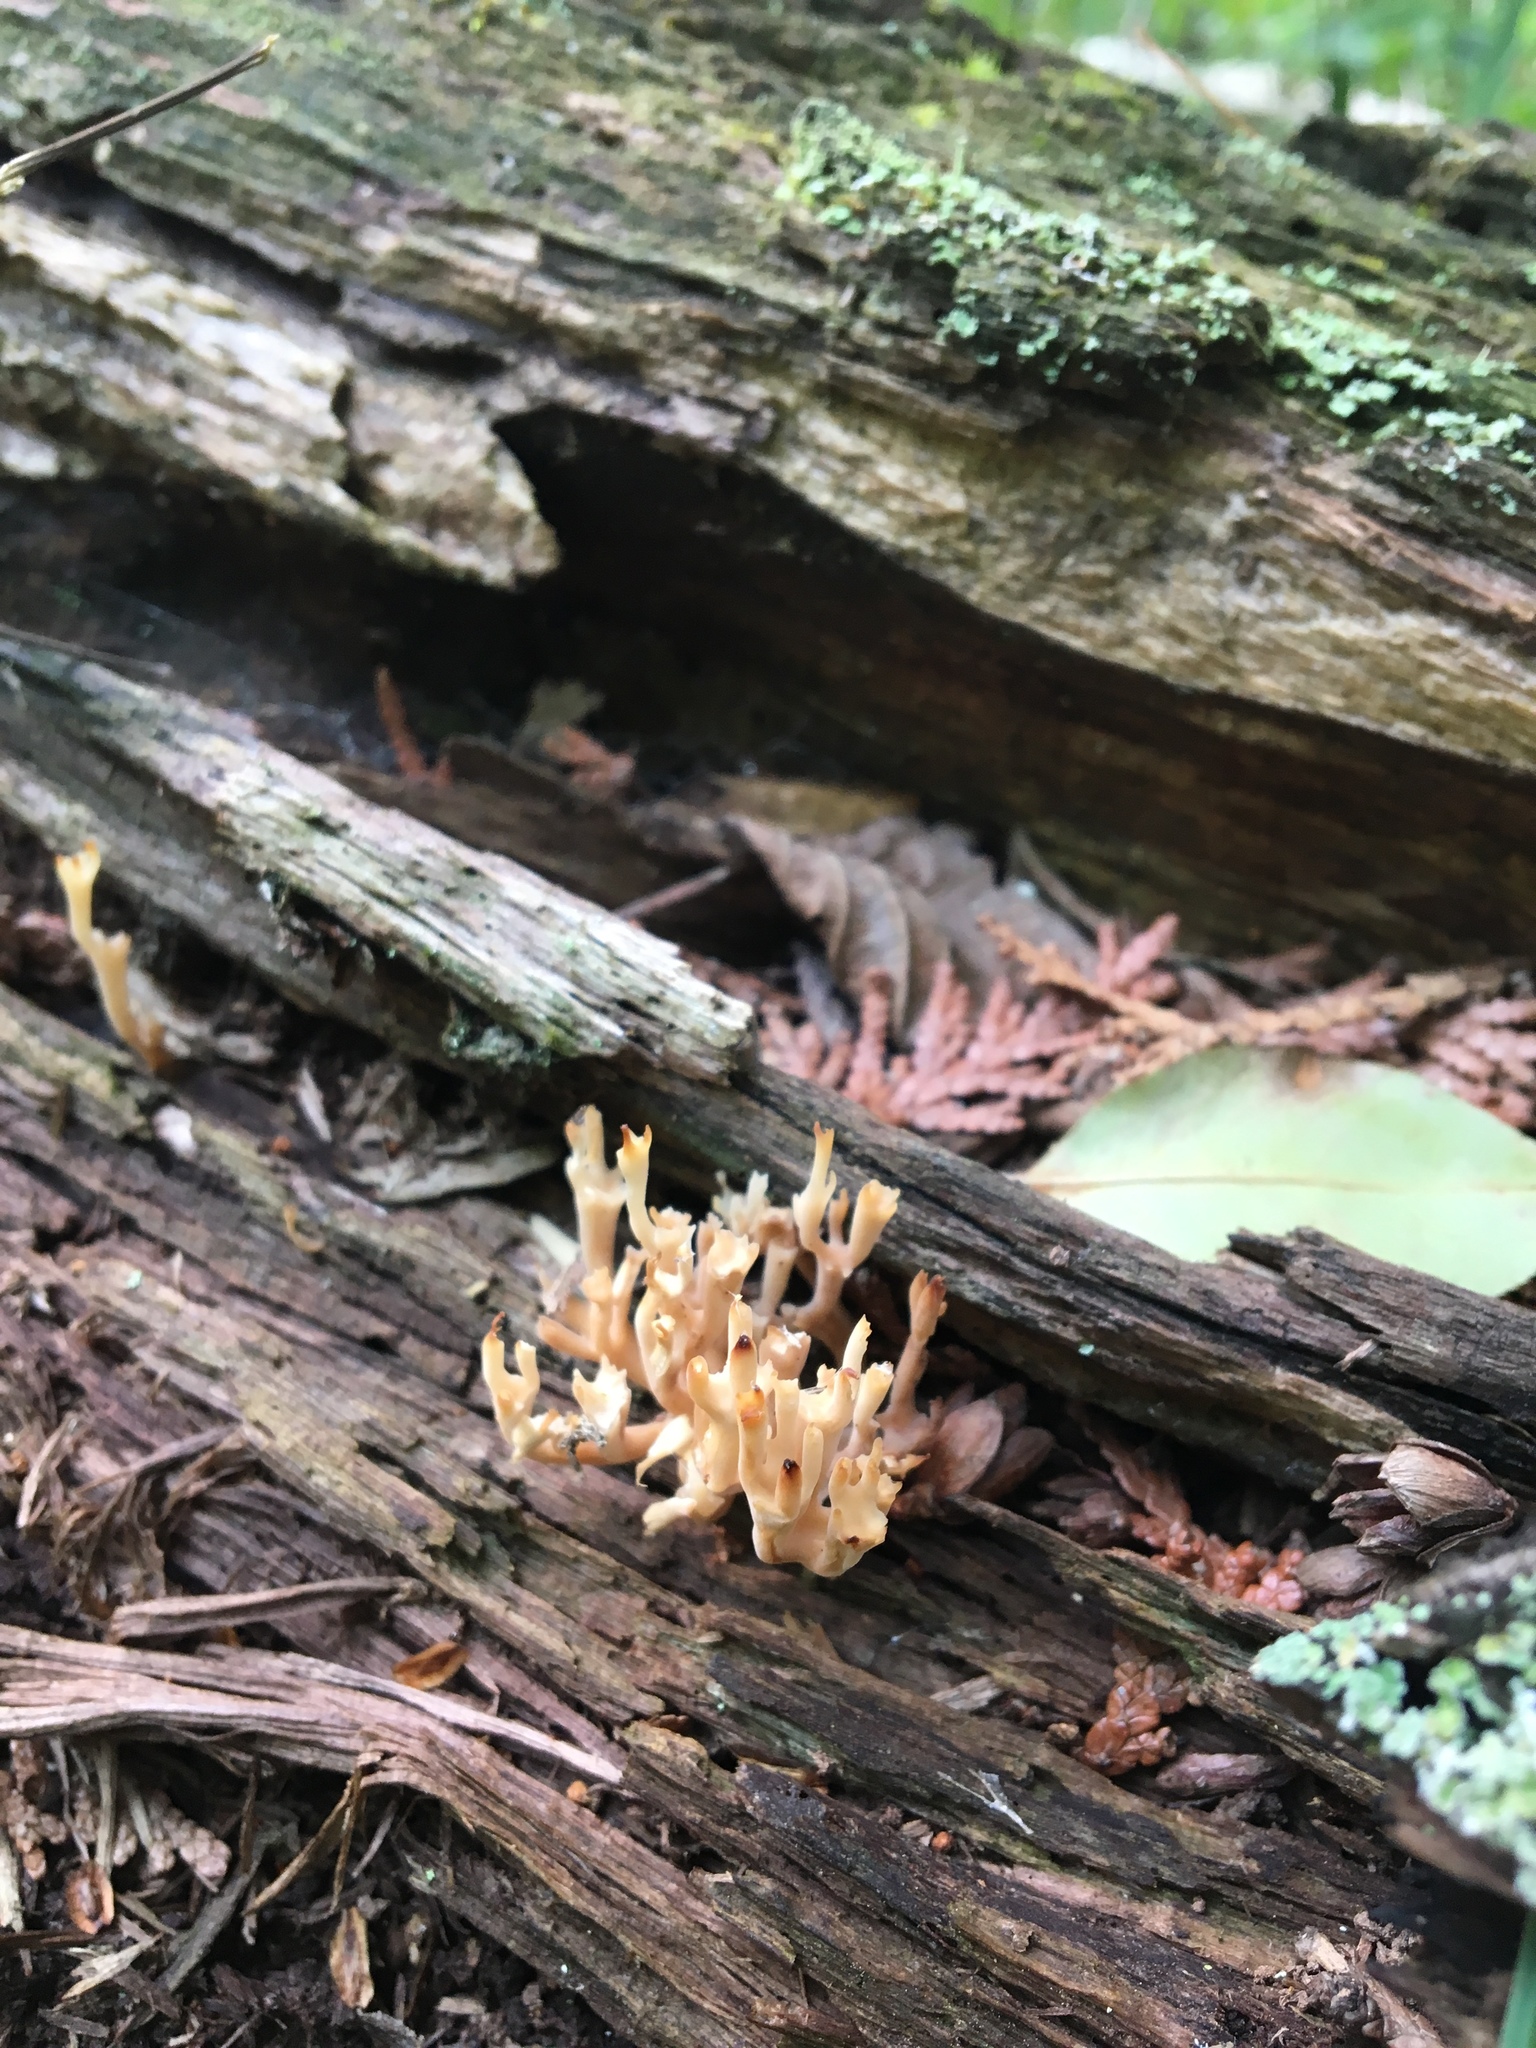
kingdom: Fungi
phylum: Basidiomycota
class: Agaricomycetes
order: Russulales
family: Auriscalpiaceae
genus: Artomyces
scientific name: Artomyces pyxidatus
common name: Crown-tipped coral fungus
